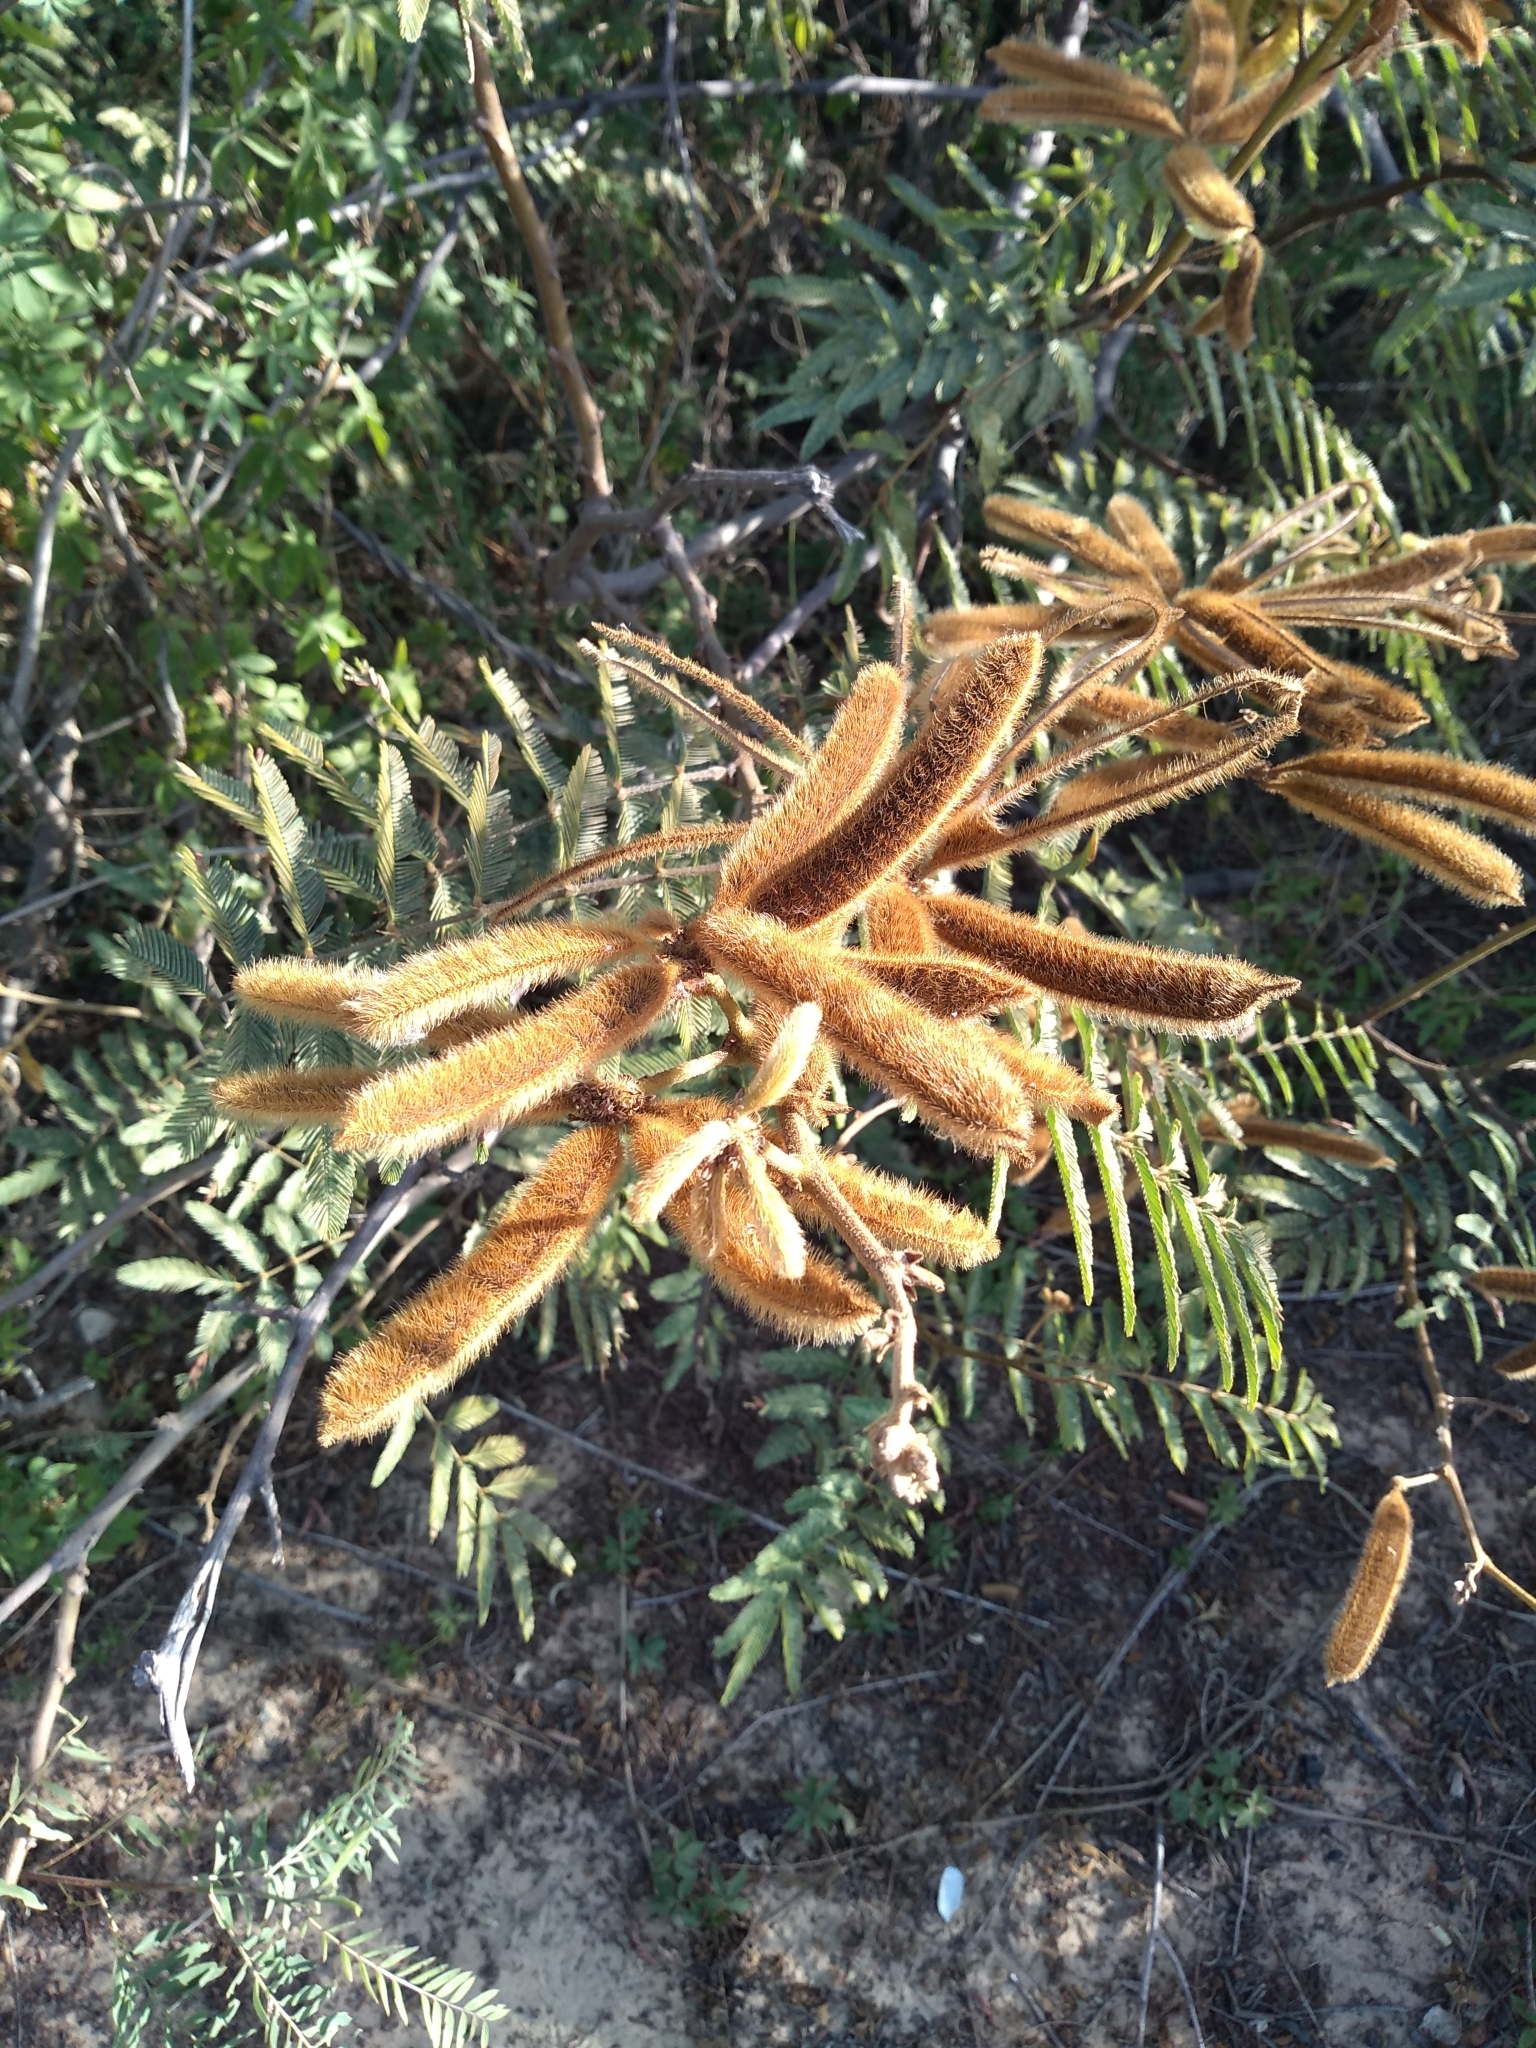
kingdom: Plantae
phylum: Tracheophyta
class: Magnoliopsida
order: Fabales
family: Fabaceae
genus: Mimosa
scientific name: Mimosa pigra
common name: Black mimosa
